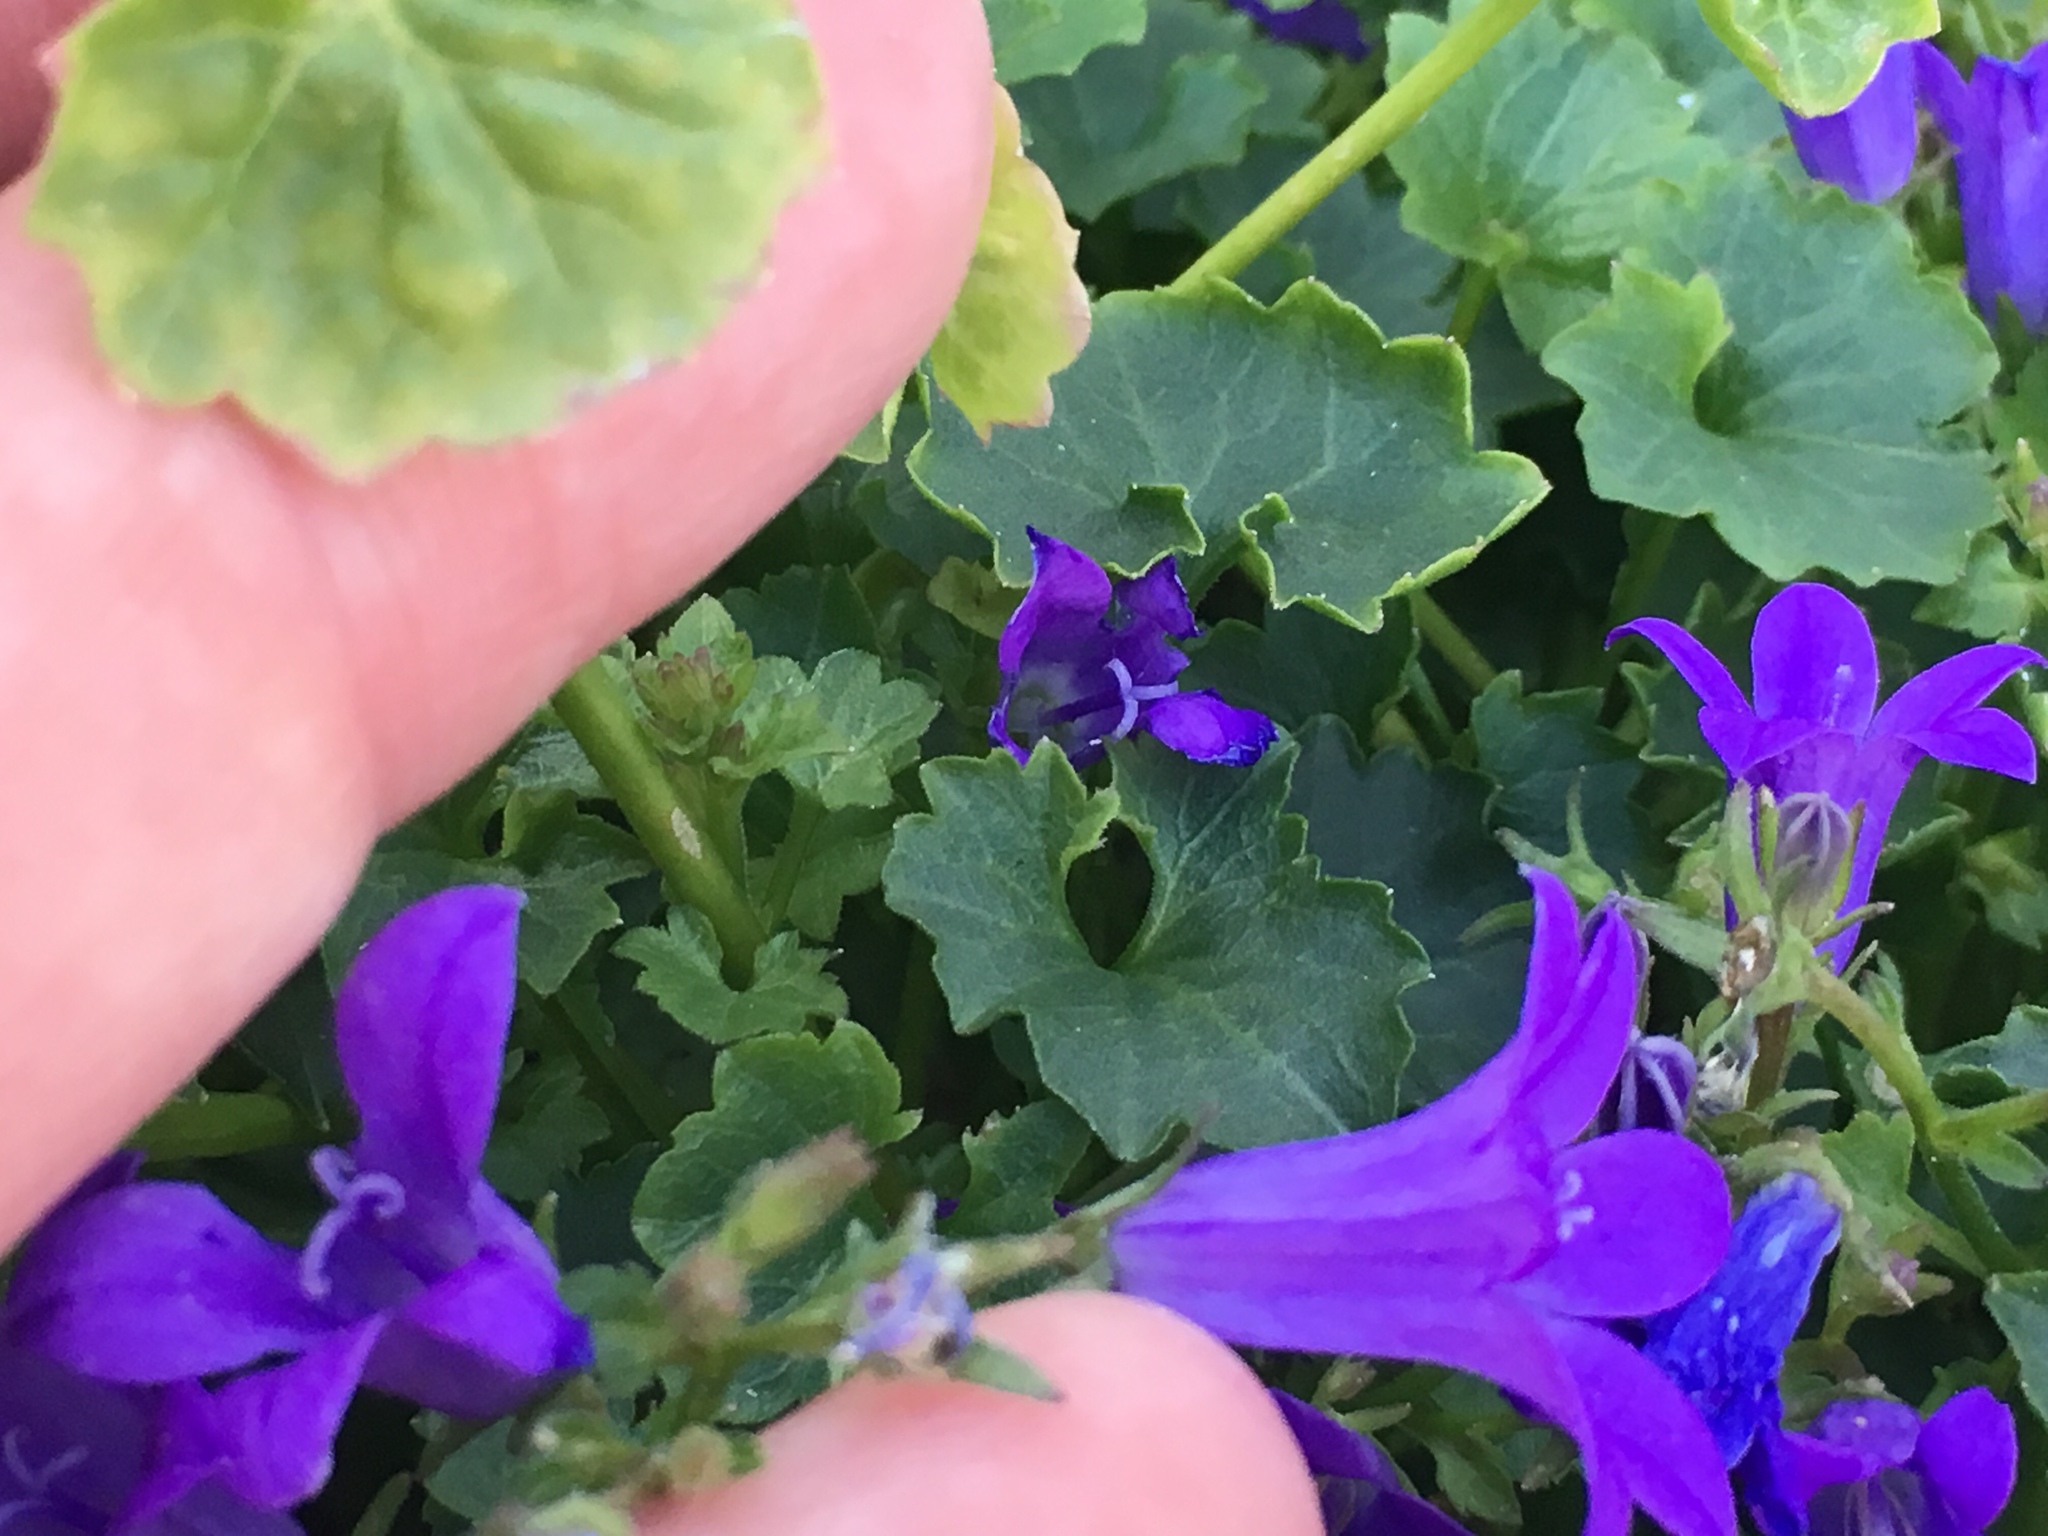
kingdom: Plantae
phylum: Tracheophyta
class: Magnoliopsida
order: Asterales
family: Campanulaceae
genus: Campanula
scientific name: Campanula poscharskyana
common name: Trailing bellflower
